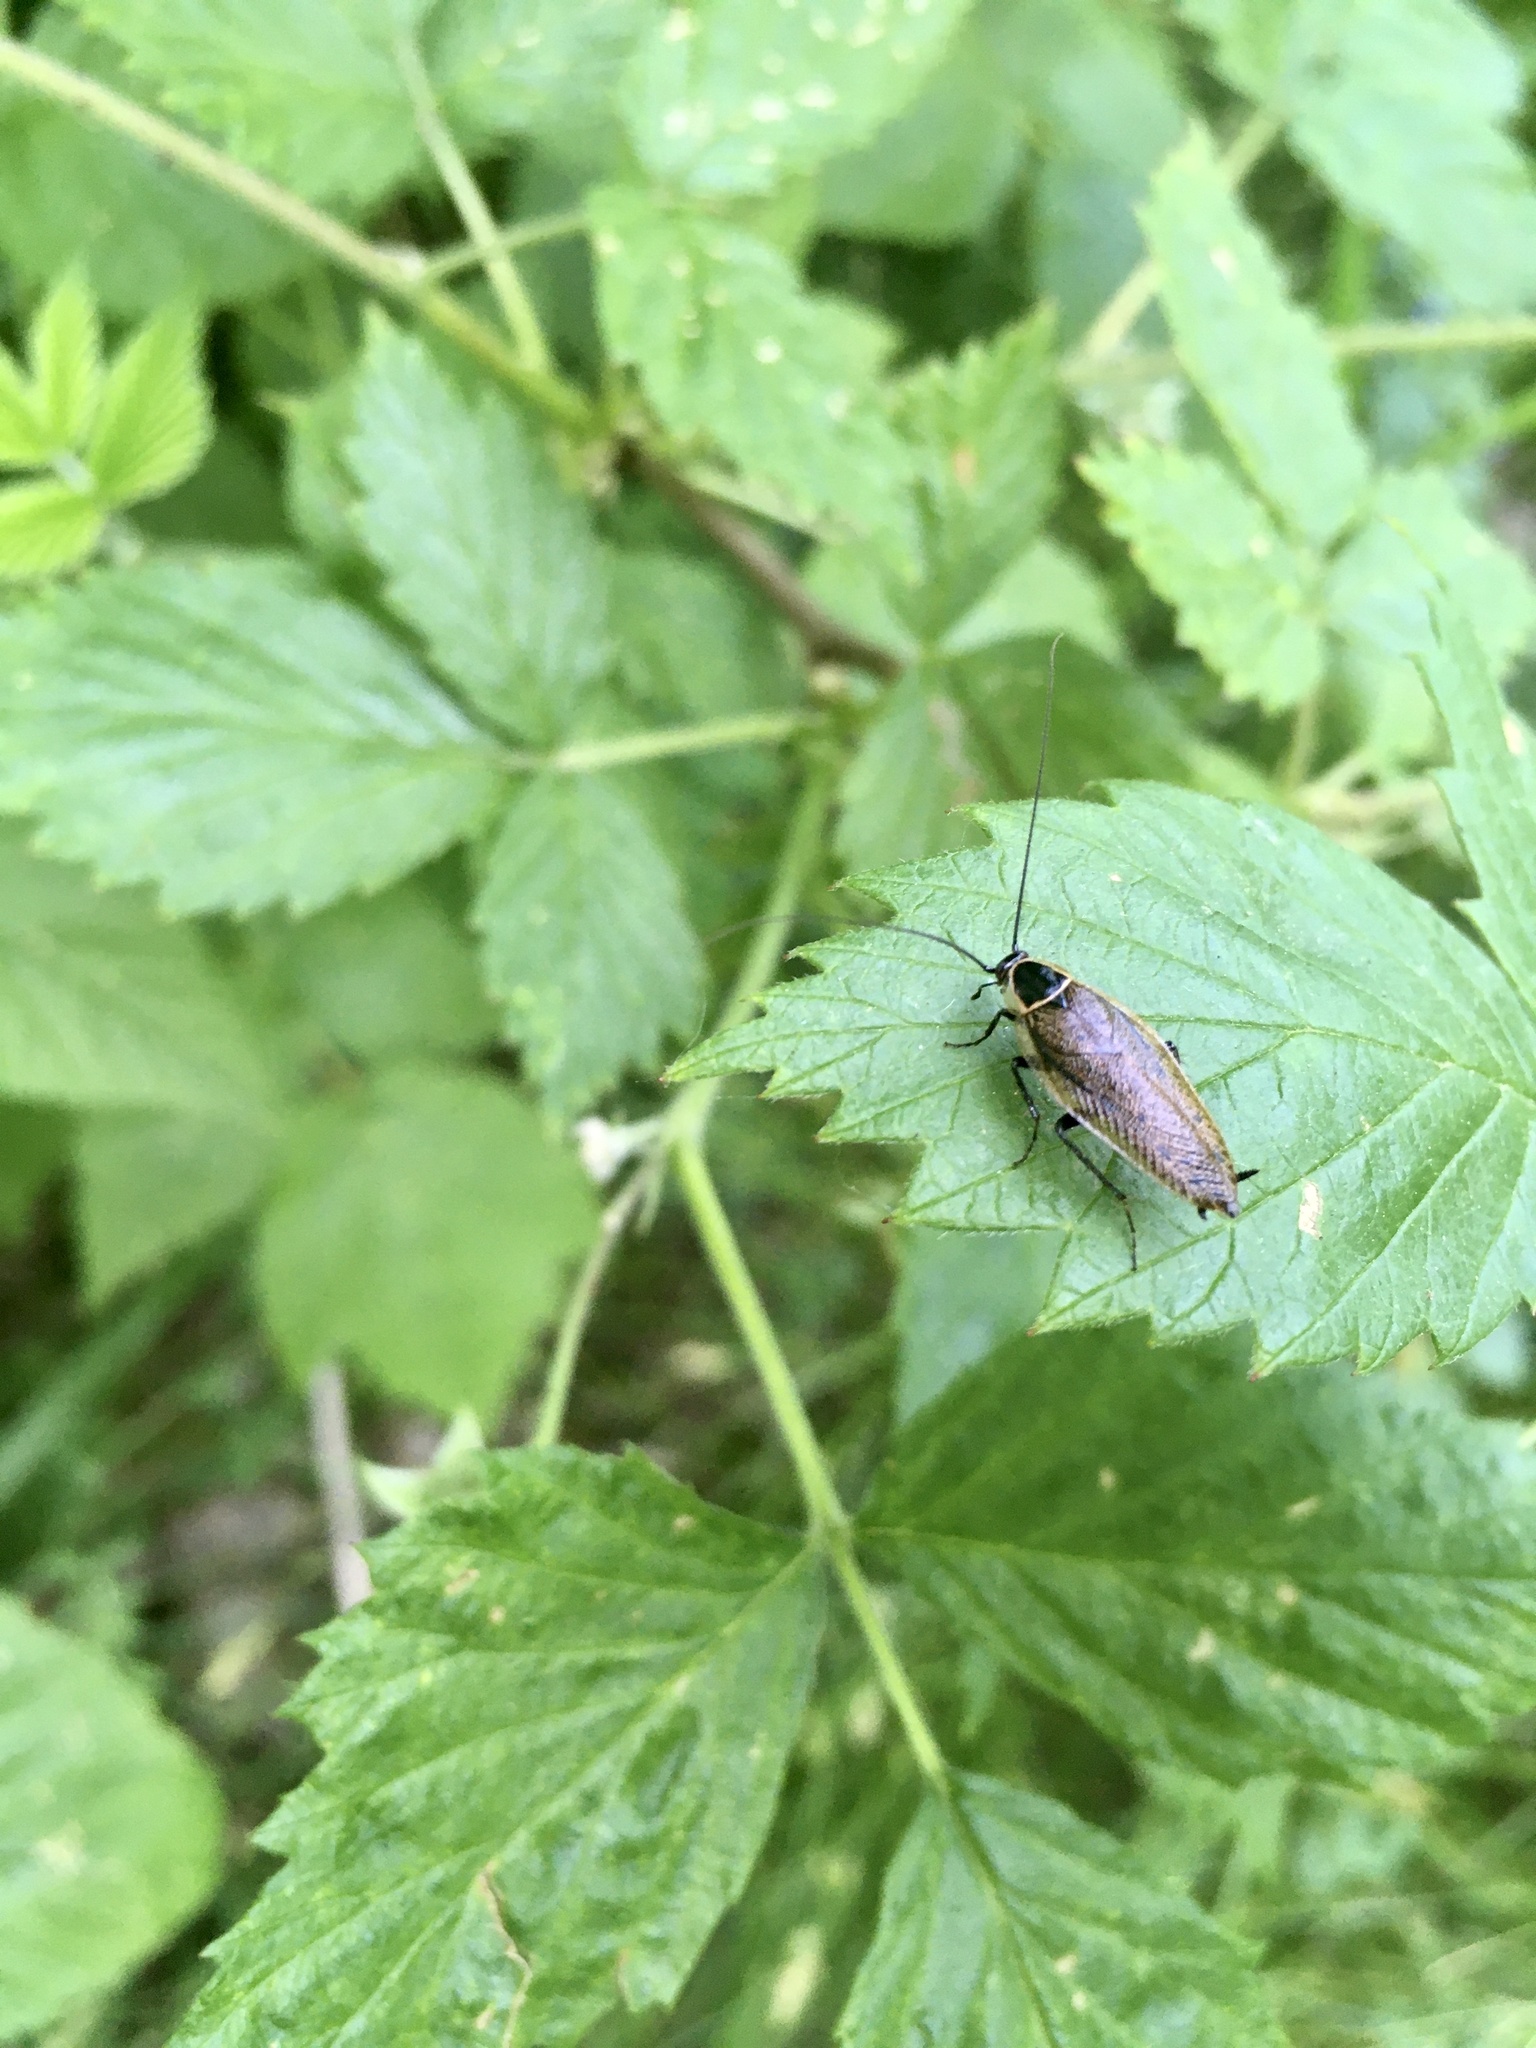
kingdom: Animalia
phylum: Arthropoda
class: Insecta
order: Blattodea
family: Ectobiidae
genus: Ectobius
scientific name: Ectobius lapponicus
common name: Dusky cockroach
